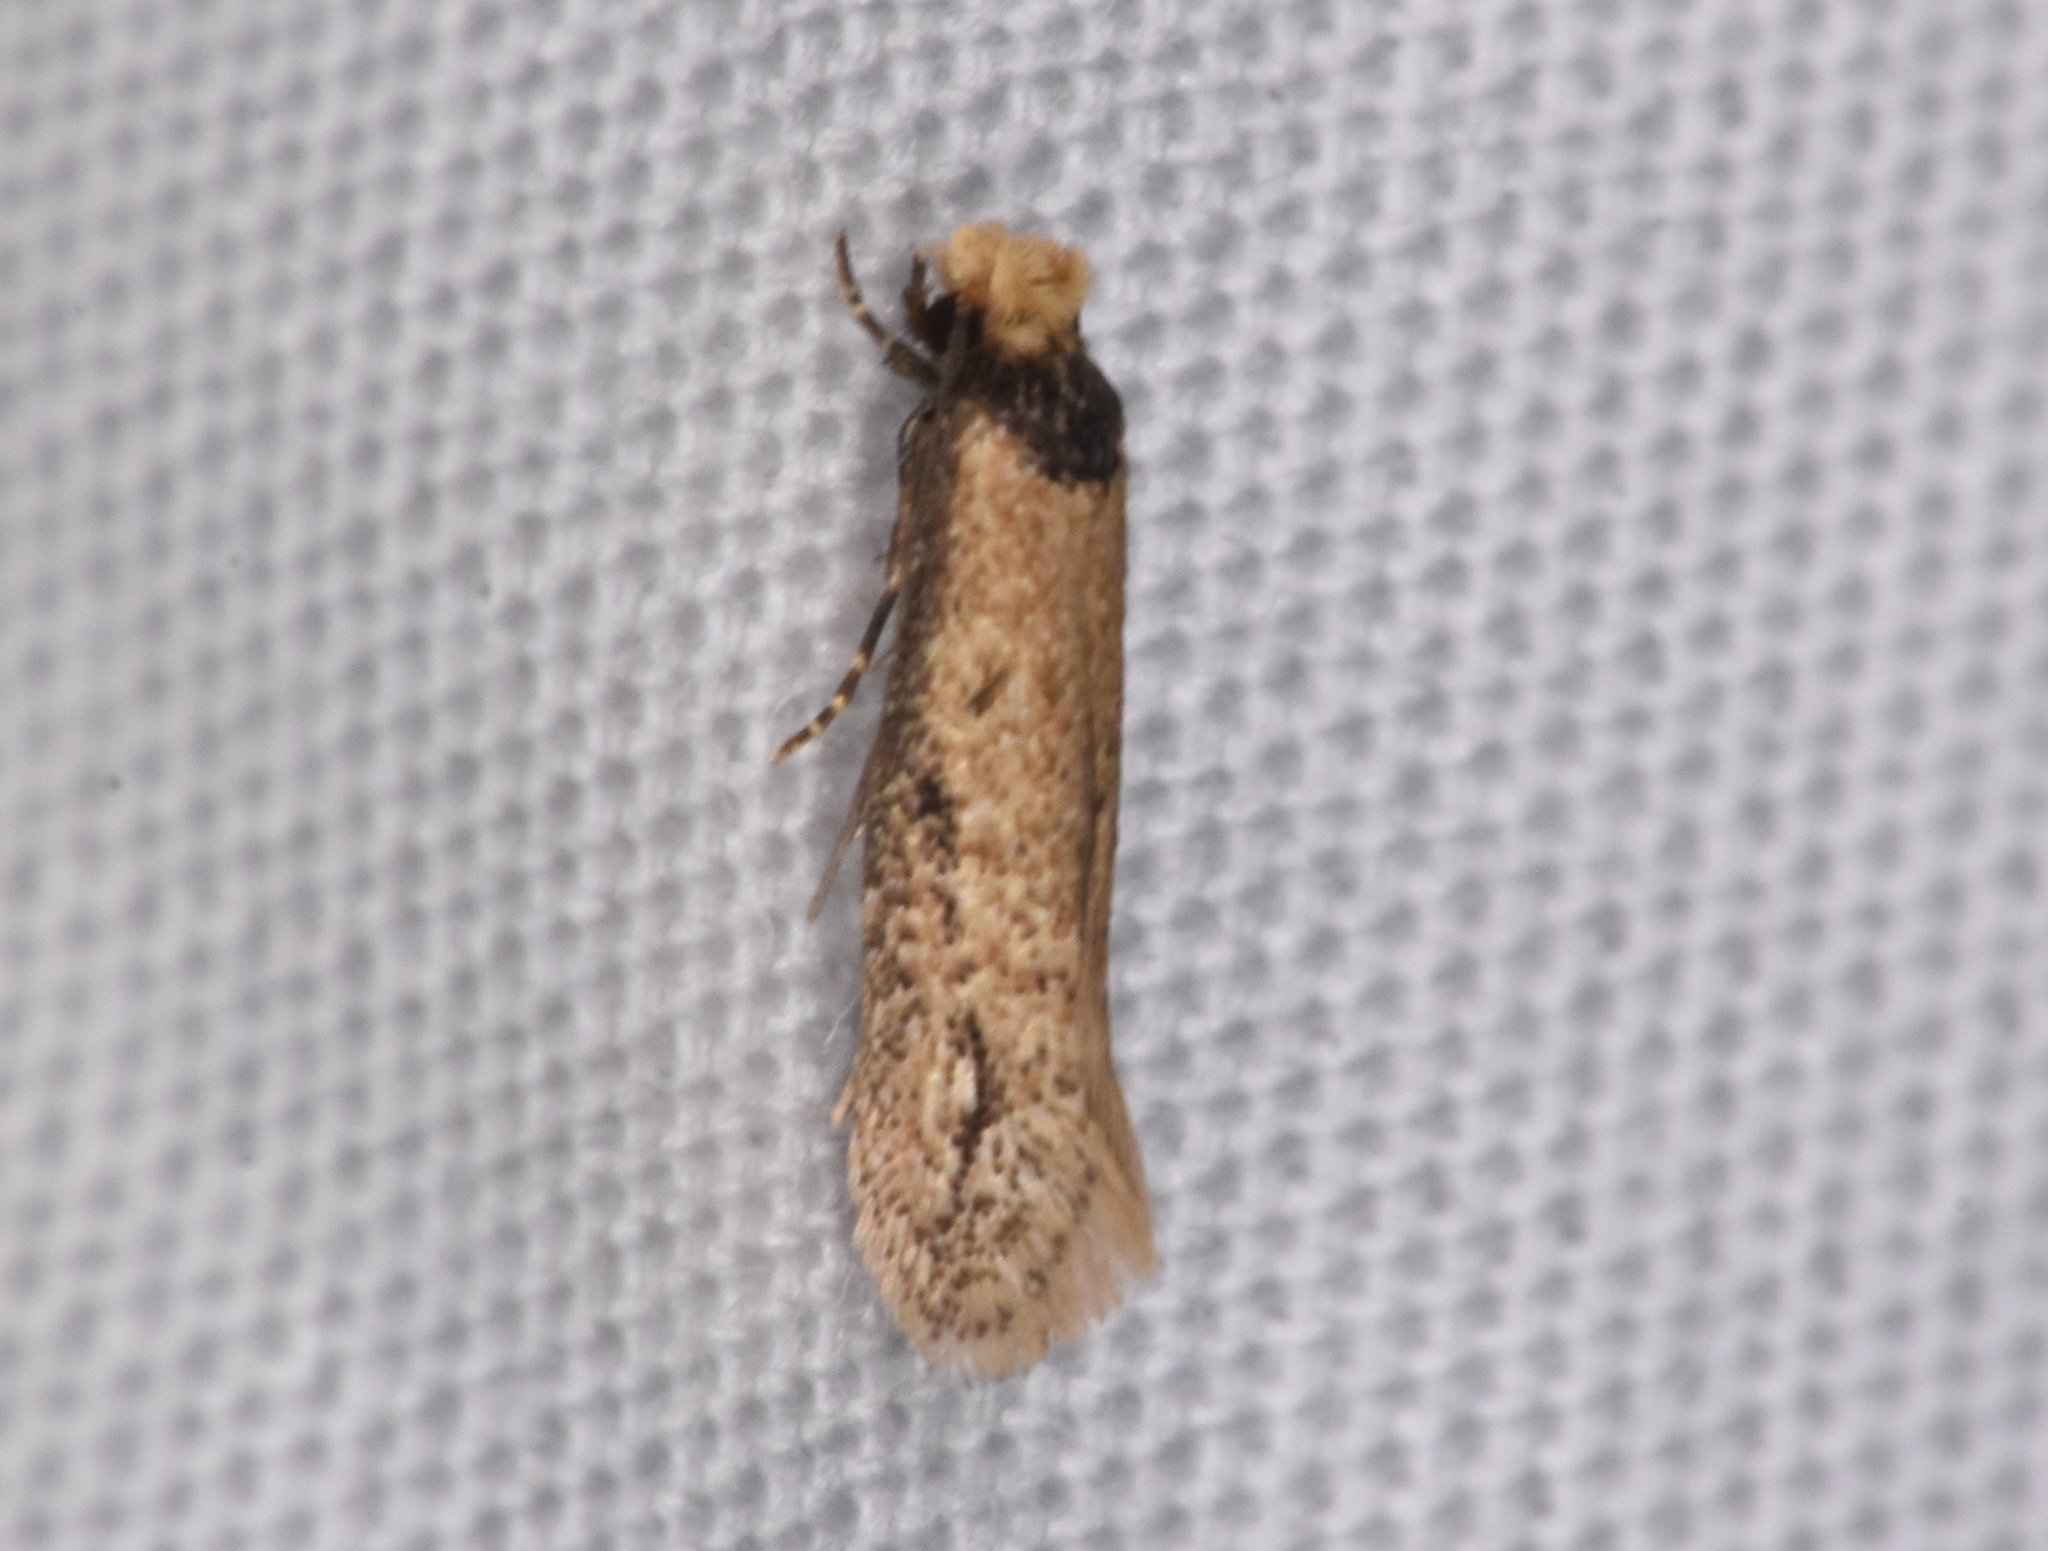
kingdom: Animalia
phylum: Arthropoda
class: Insecta
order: Lepidoptera
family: Meessiidae
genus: Homostinea
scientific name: Homostinea curviliniella
